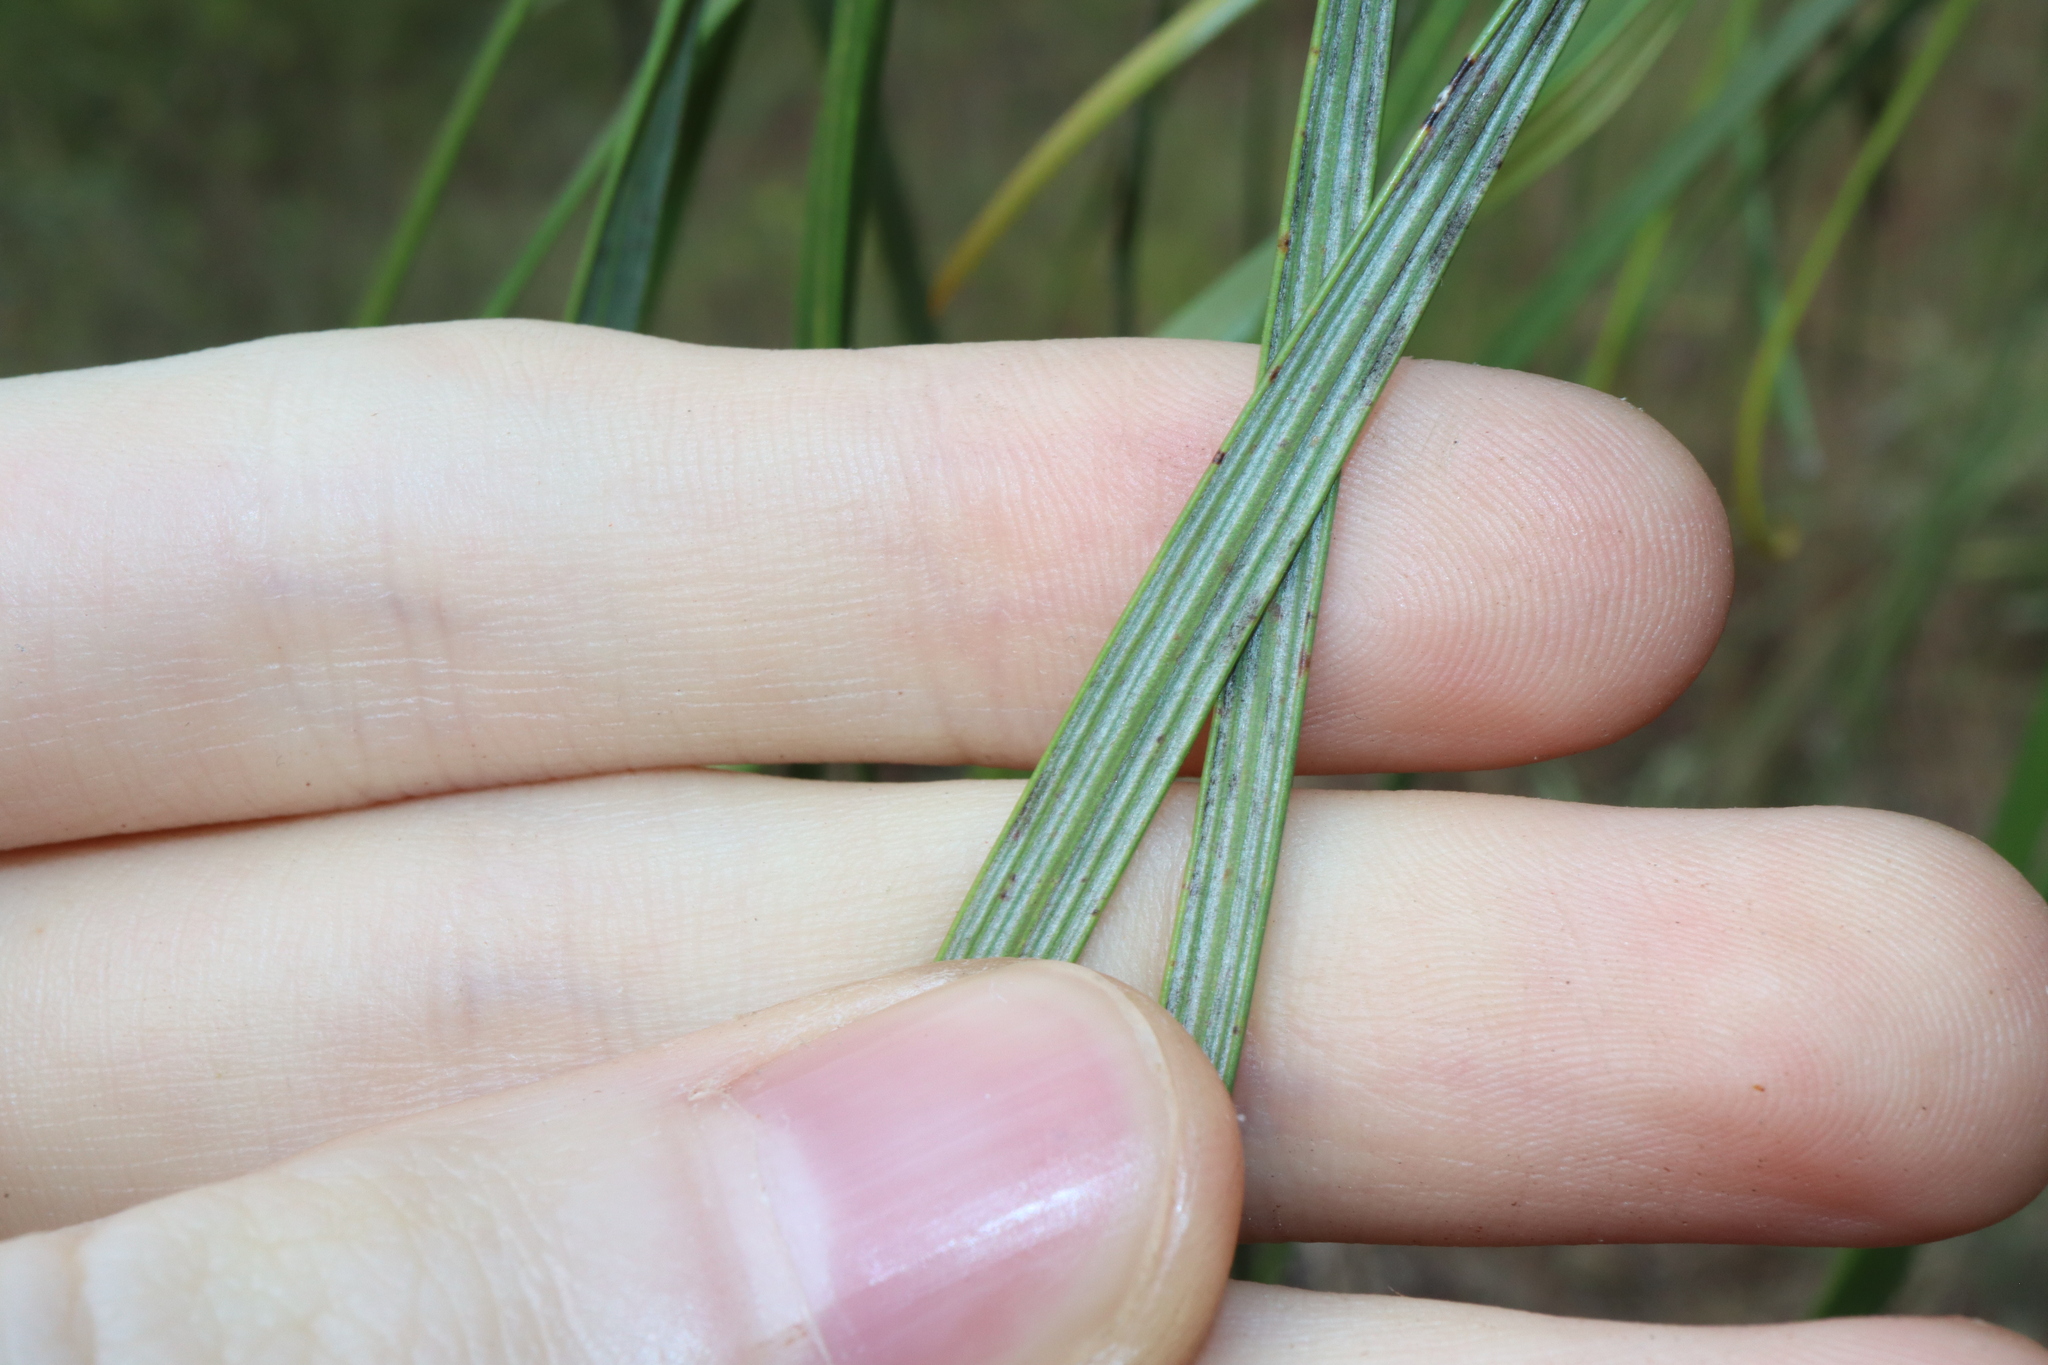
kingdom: Plantae
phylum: Tracheophyta
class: Magnoliopsida
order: Proteales
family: Proteaceae
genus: Grevillea
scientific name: Grevillea parallela
